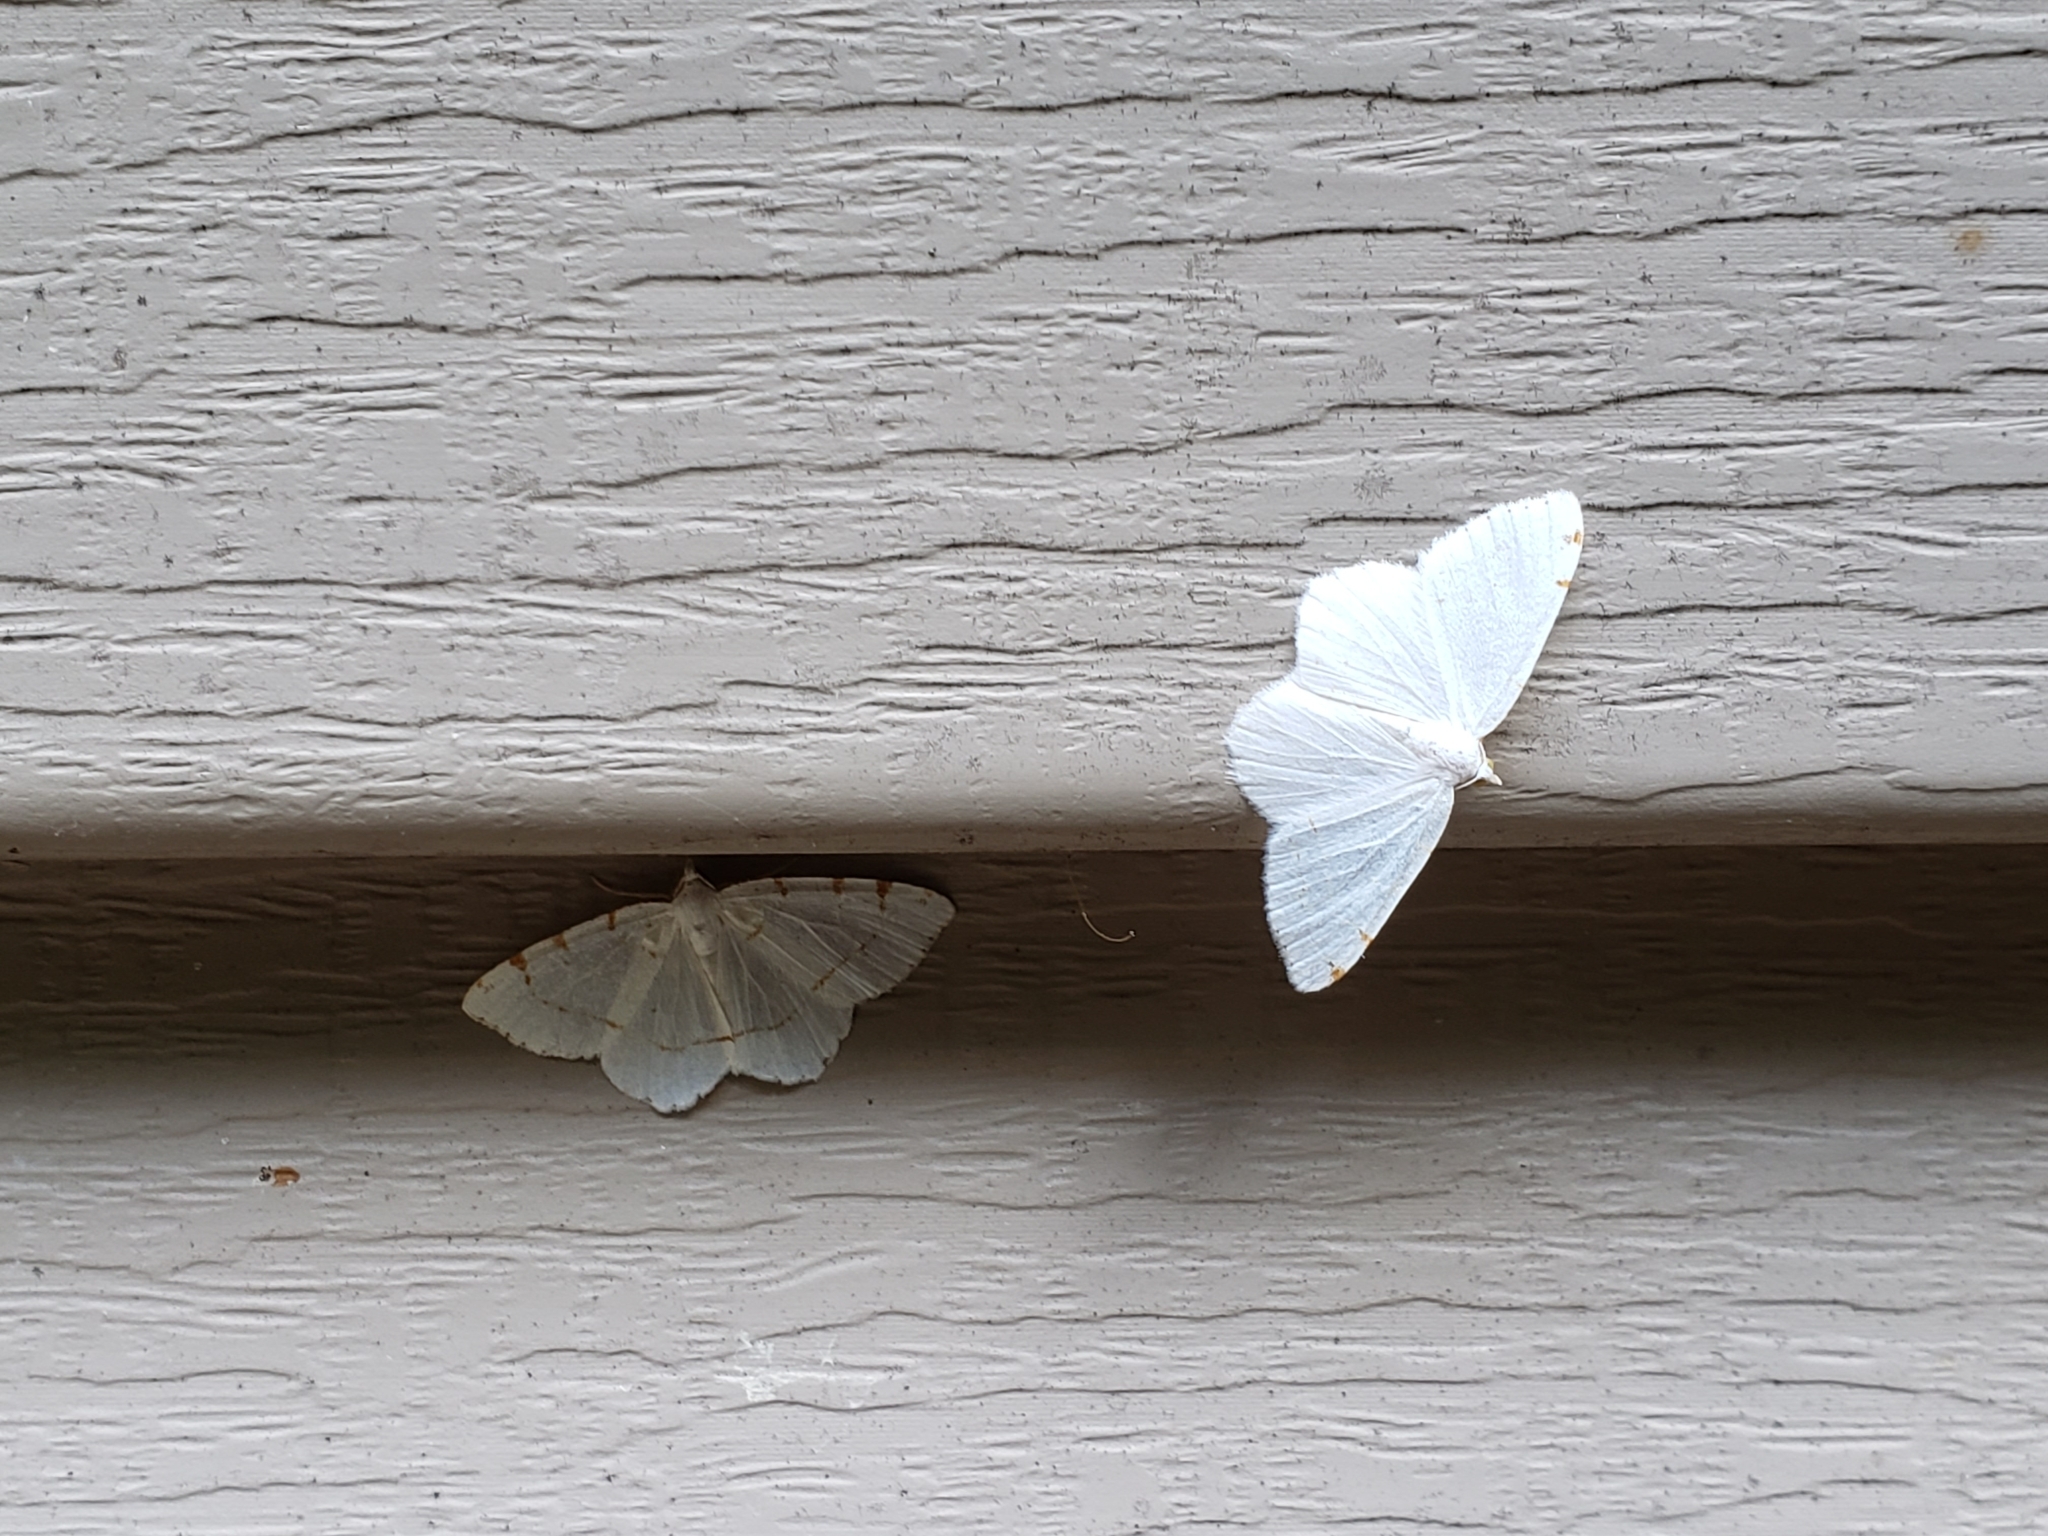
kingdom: Animalia
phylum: Arthropoda
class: Insecta
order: Lepidoptera
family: Geometridae
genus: Macaria
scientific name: Macaria pustularia
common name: Lesser maple spanworm moth
